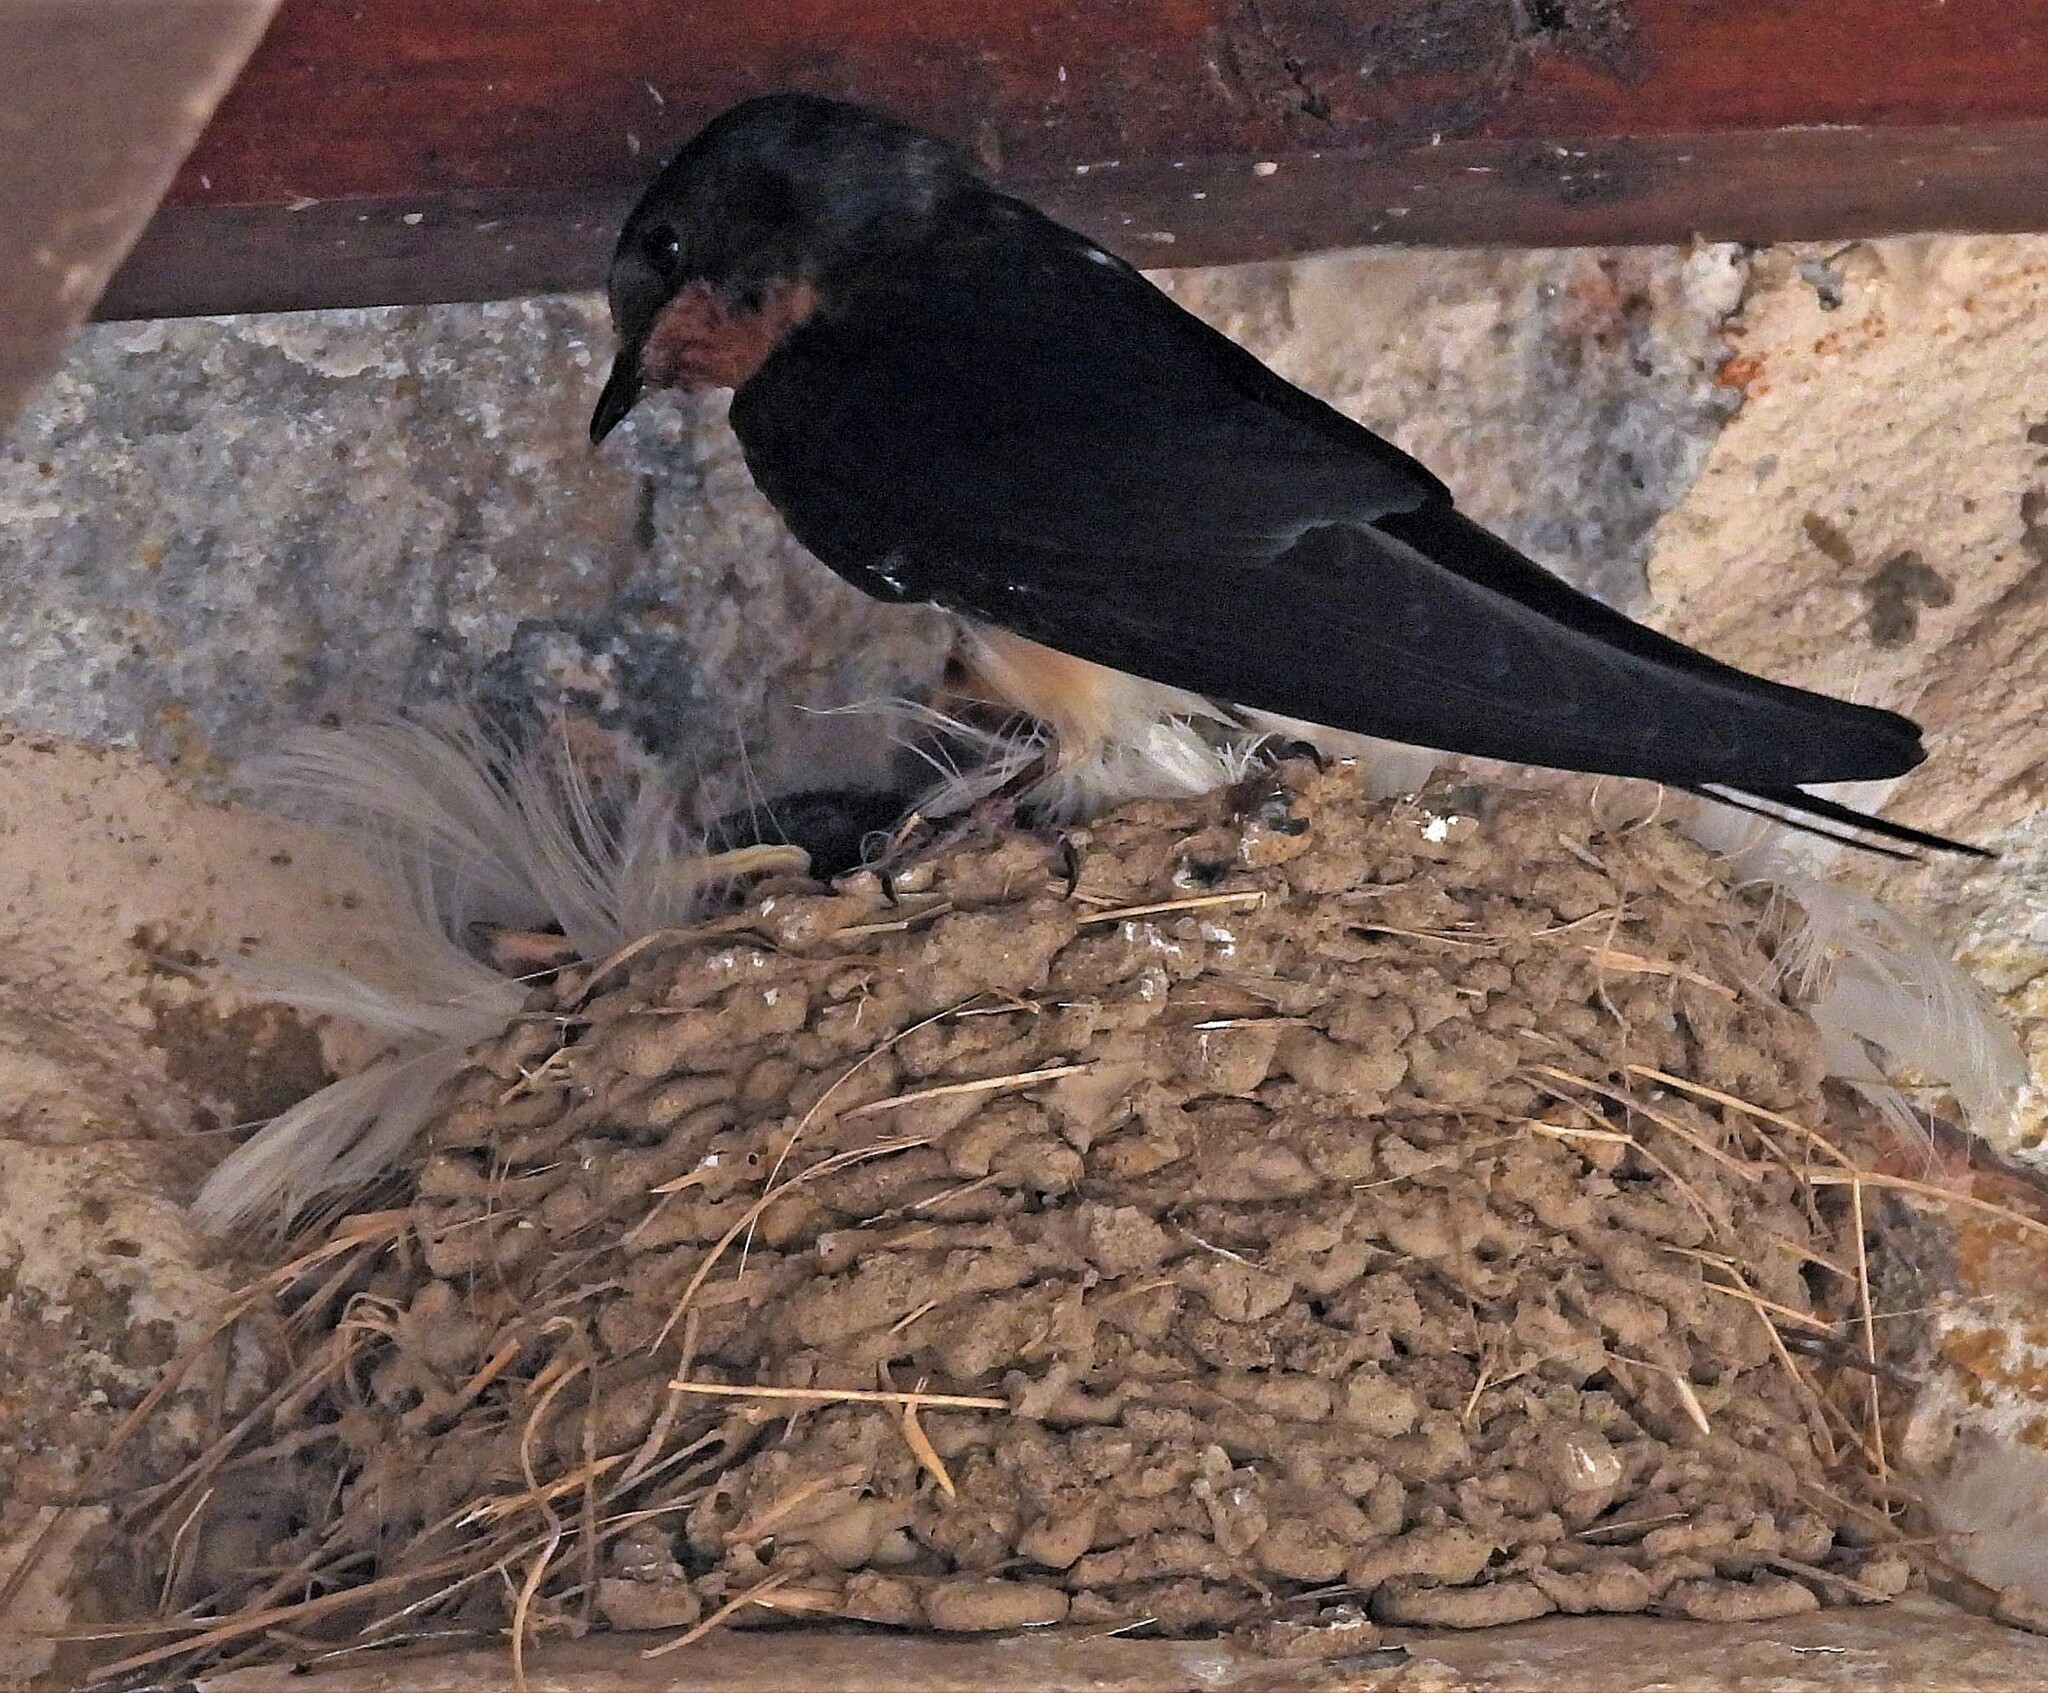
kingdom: Animalia
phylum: Chordata
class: Aves
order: Passeriformes
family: Hirundinidae
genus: Hirundo
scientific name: Hirundo rustica
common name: Barn swallow
